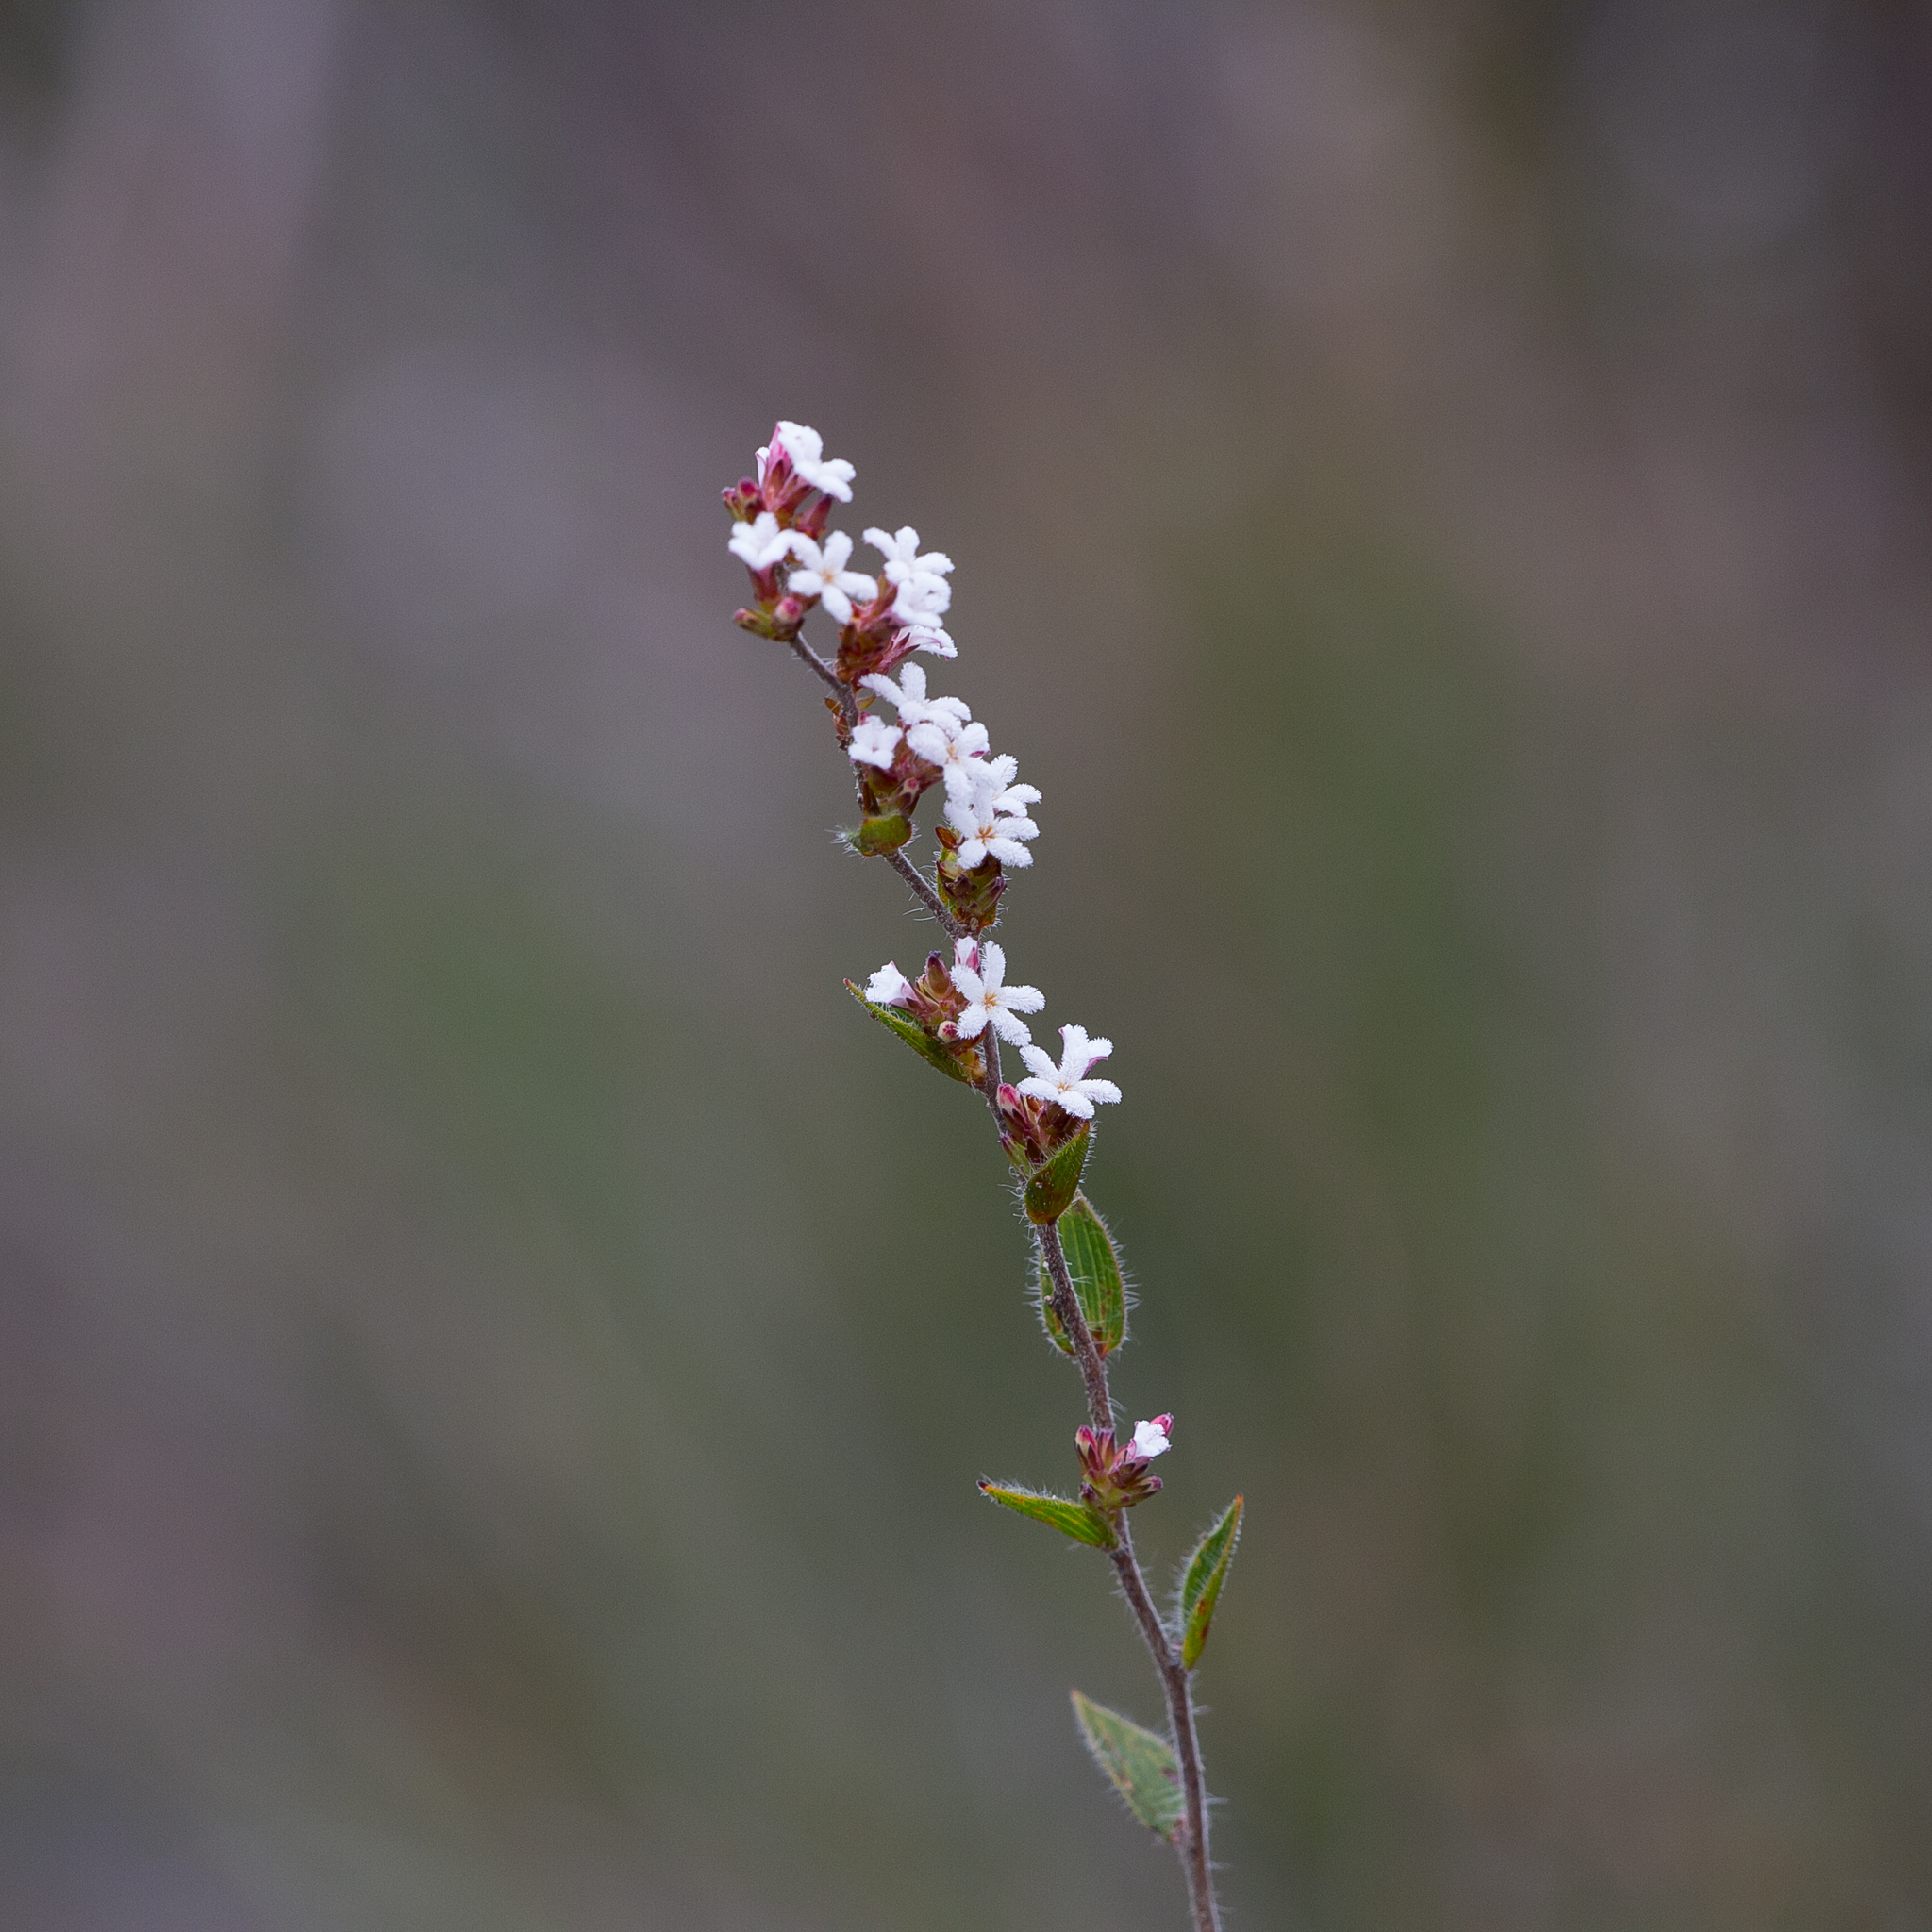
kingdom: Plantae
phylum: Tracheophyta
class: Magnoliopsida
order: Ericales
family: Ericaceae
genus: Leucopogon
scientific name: Leucopogon concurvus
